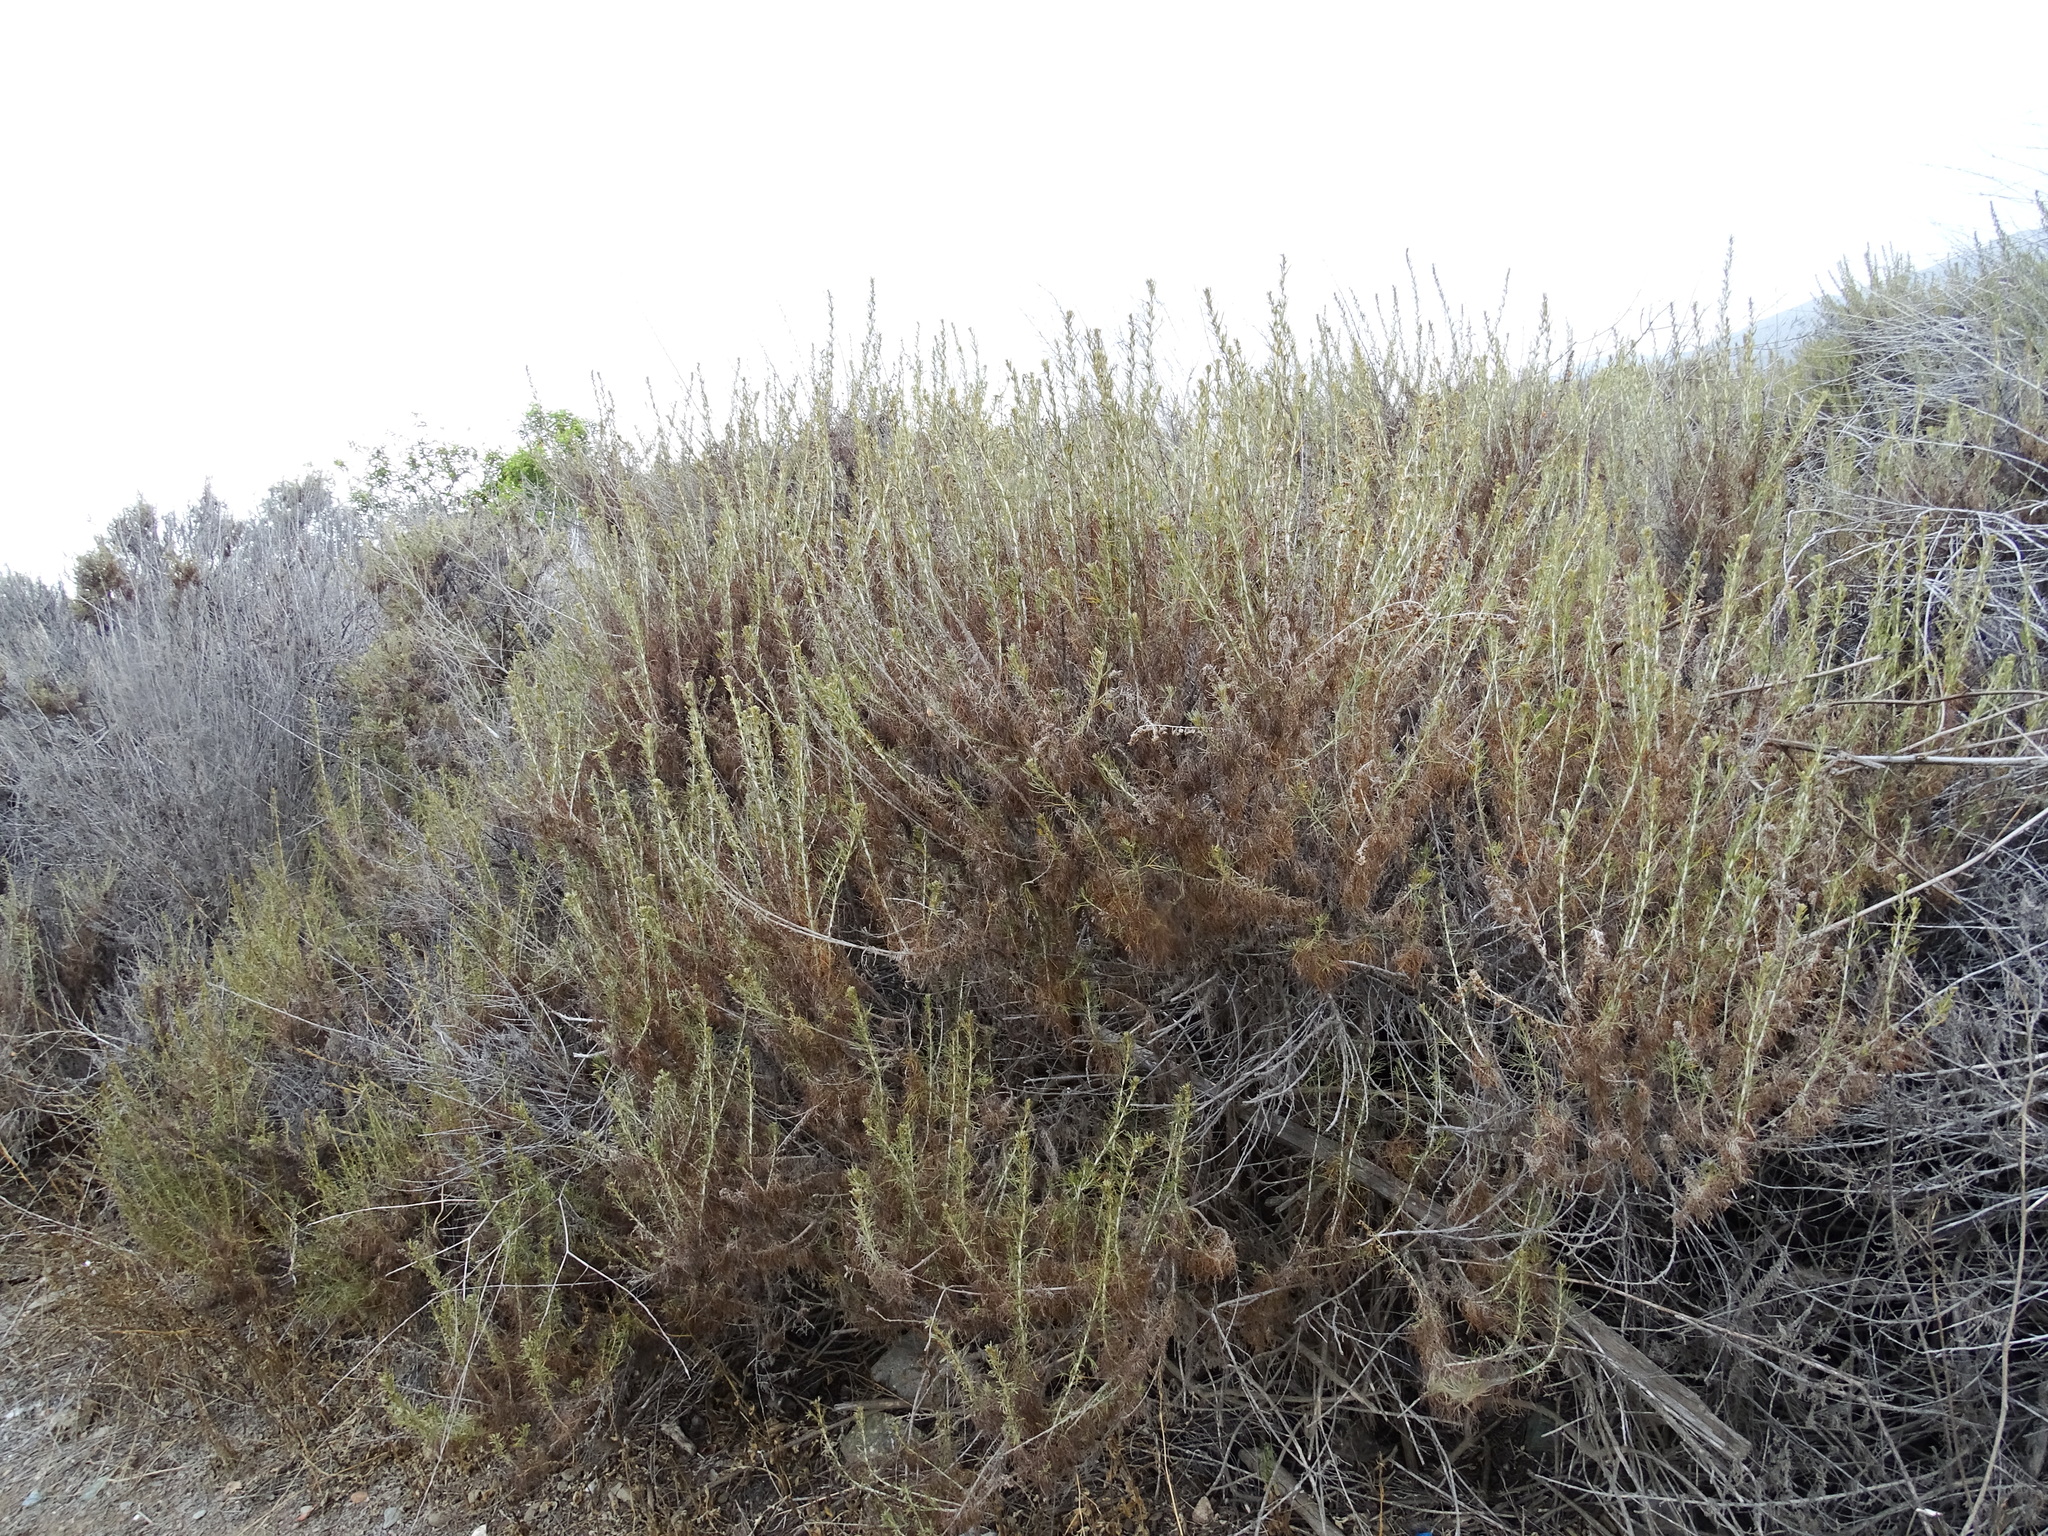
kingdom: Plantae
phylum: Tracheophyta
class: Magnoliopsida
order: Asterales
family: Asteraceae
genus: Artemisia
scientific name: Artemisia californica
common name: California sagebrush
